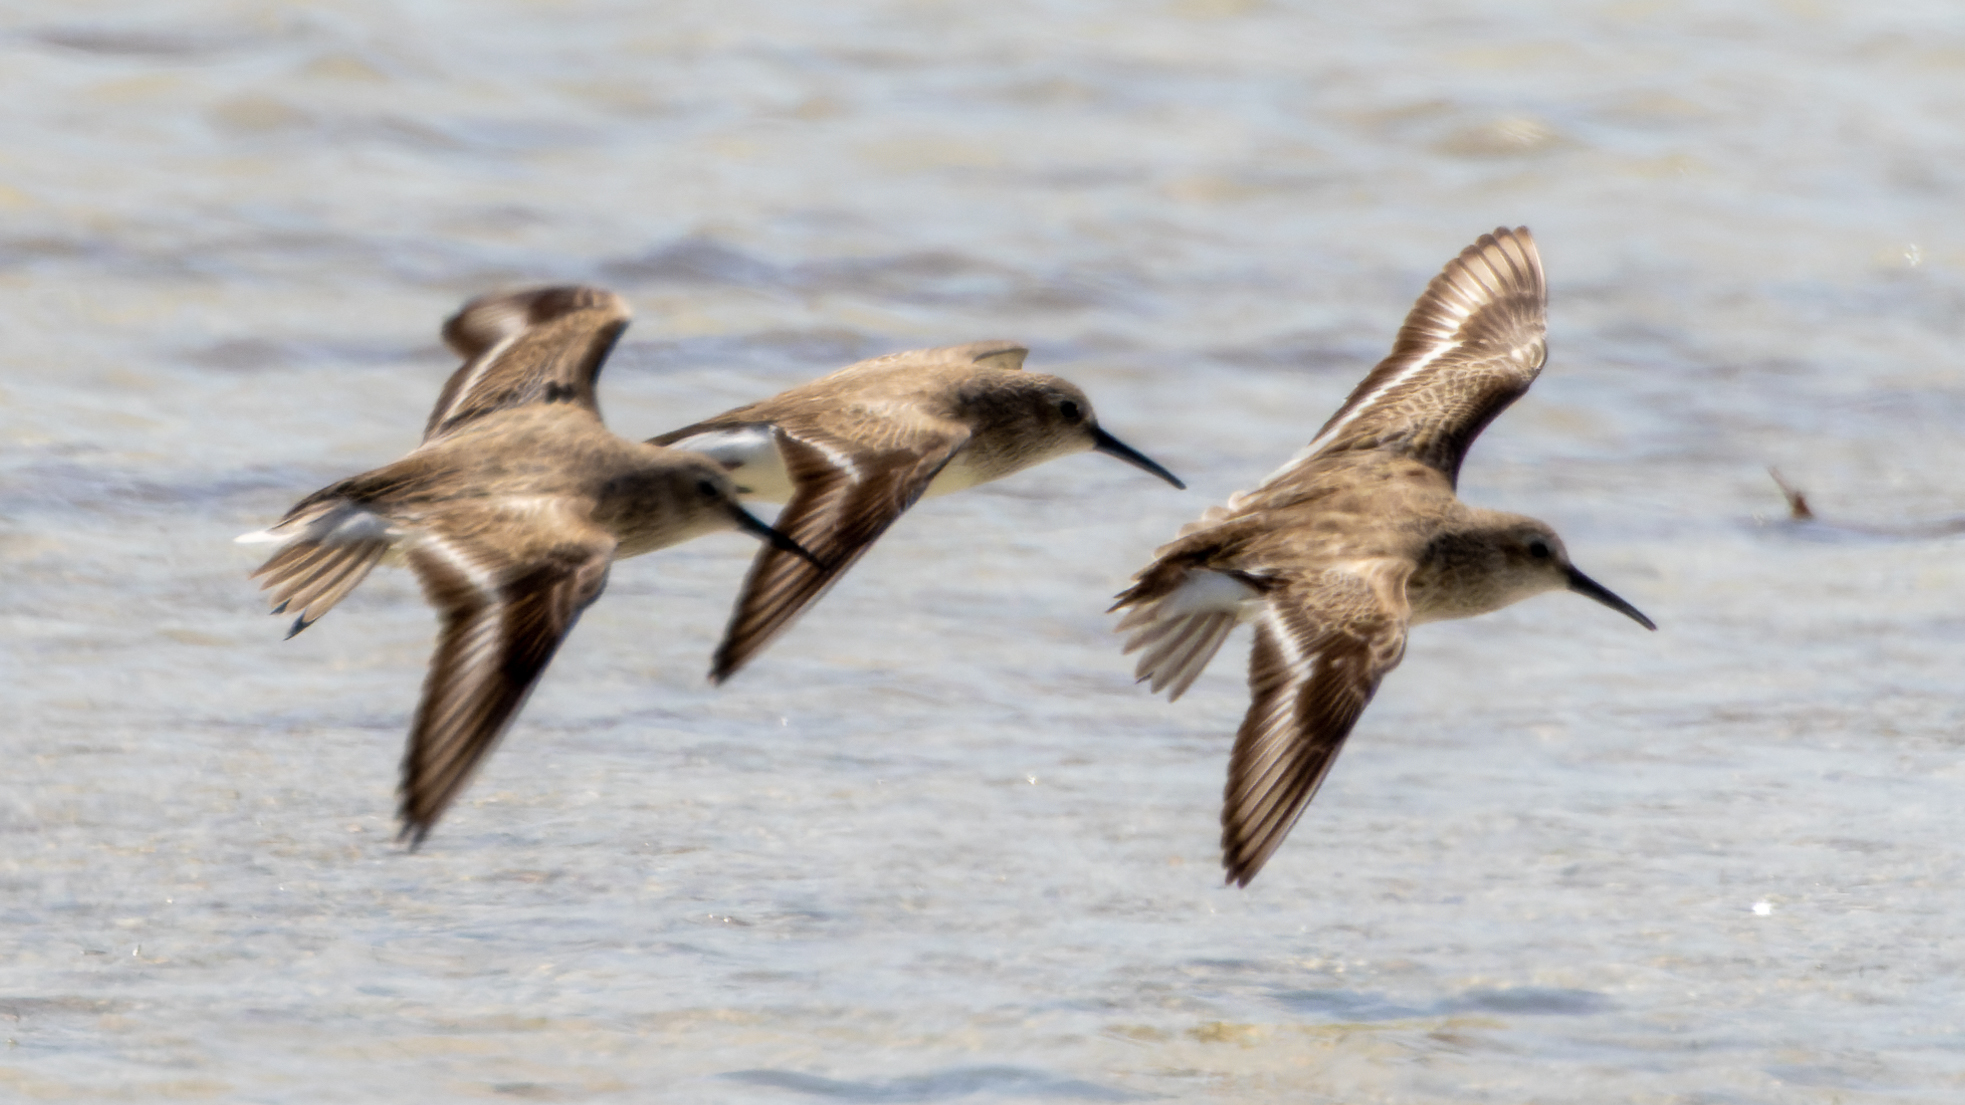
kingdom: Animalia
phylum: Chordata
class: Aves
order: Charadriiformes
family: Scolopacidae
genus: Calidris
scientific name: Calidris alpina
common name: Dunlin
